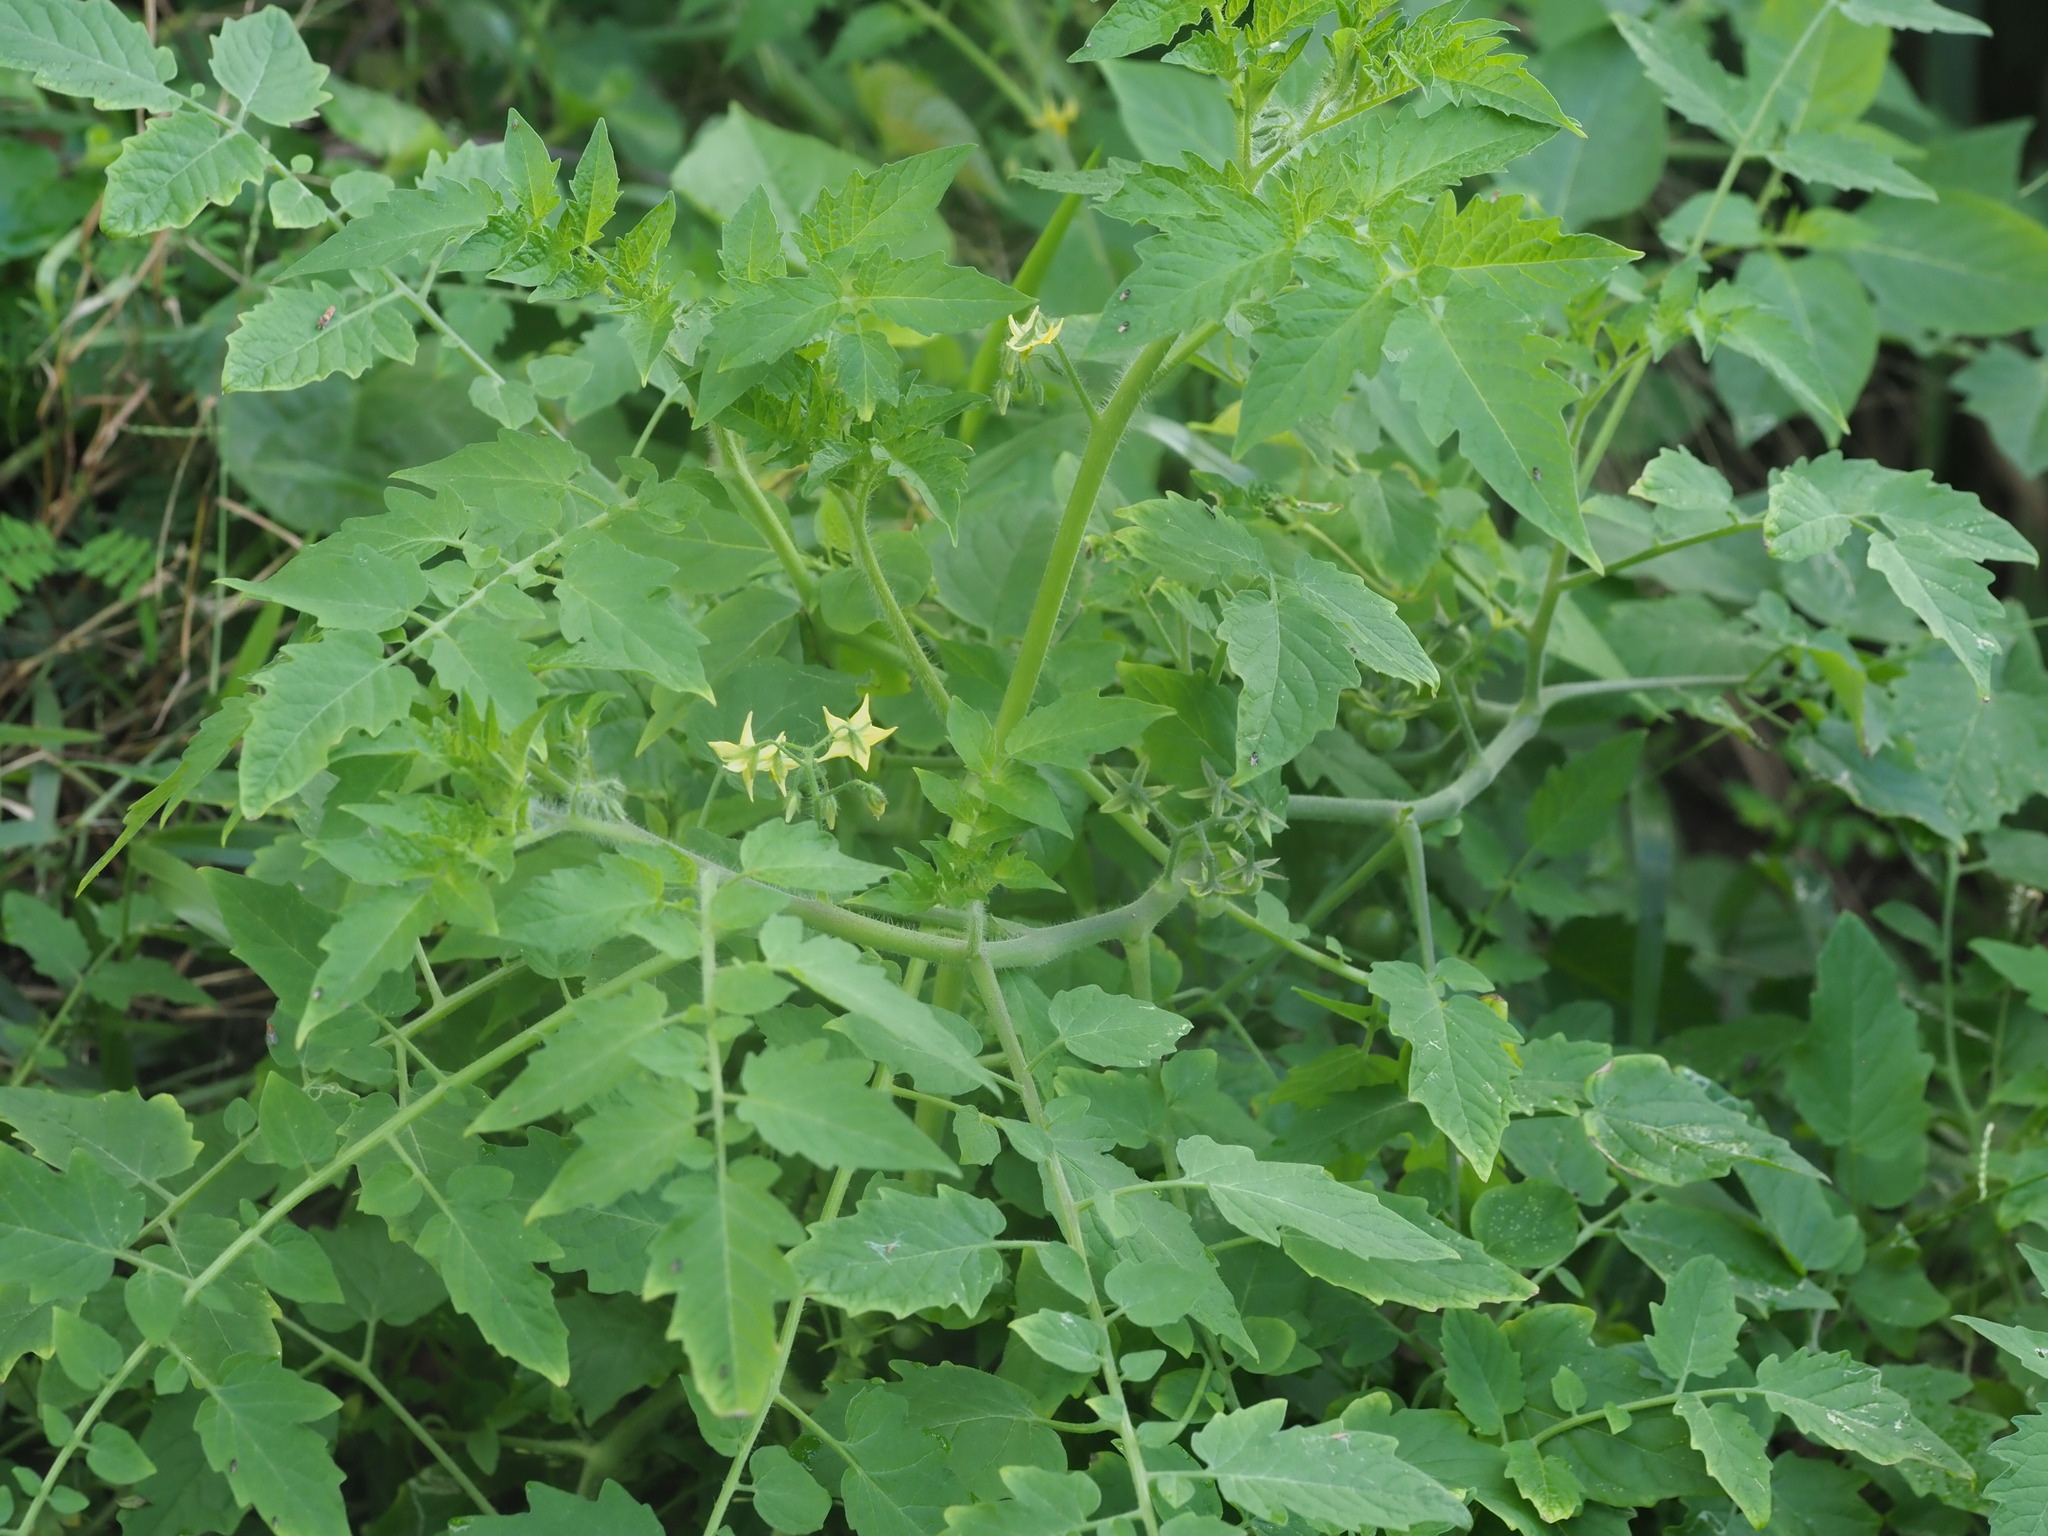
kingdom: Plantae
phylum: Tracheophyta
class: Magnoliopsida
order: Solanales
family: Solanaceae
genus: Solanum
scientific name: Solanum lycopersicum
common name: Garden tomato
